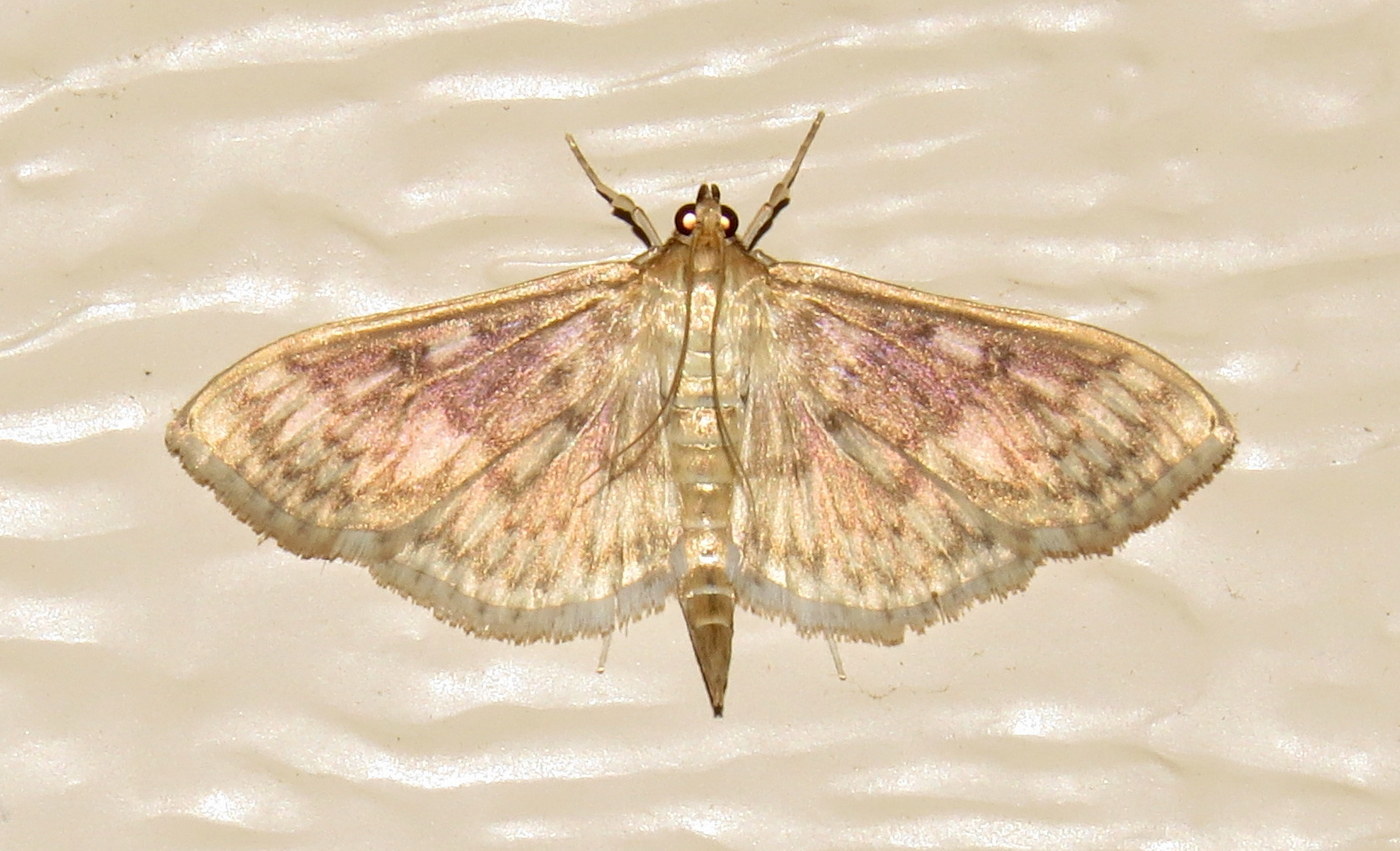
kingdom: Animalia
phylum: Arthropoda
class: Insecta
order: Lepidoptera
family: Crambidae
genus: Herpetogramma
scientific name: Herpetogramma pertextalis
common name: Bold-feathered grass moth
